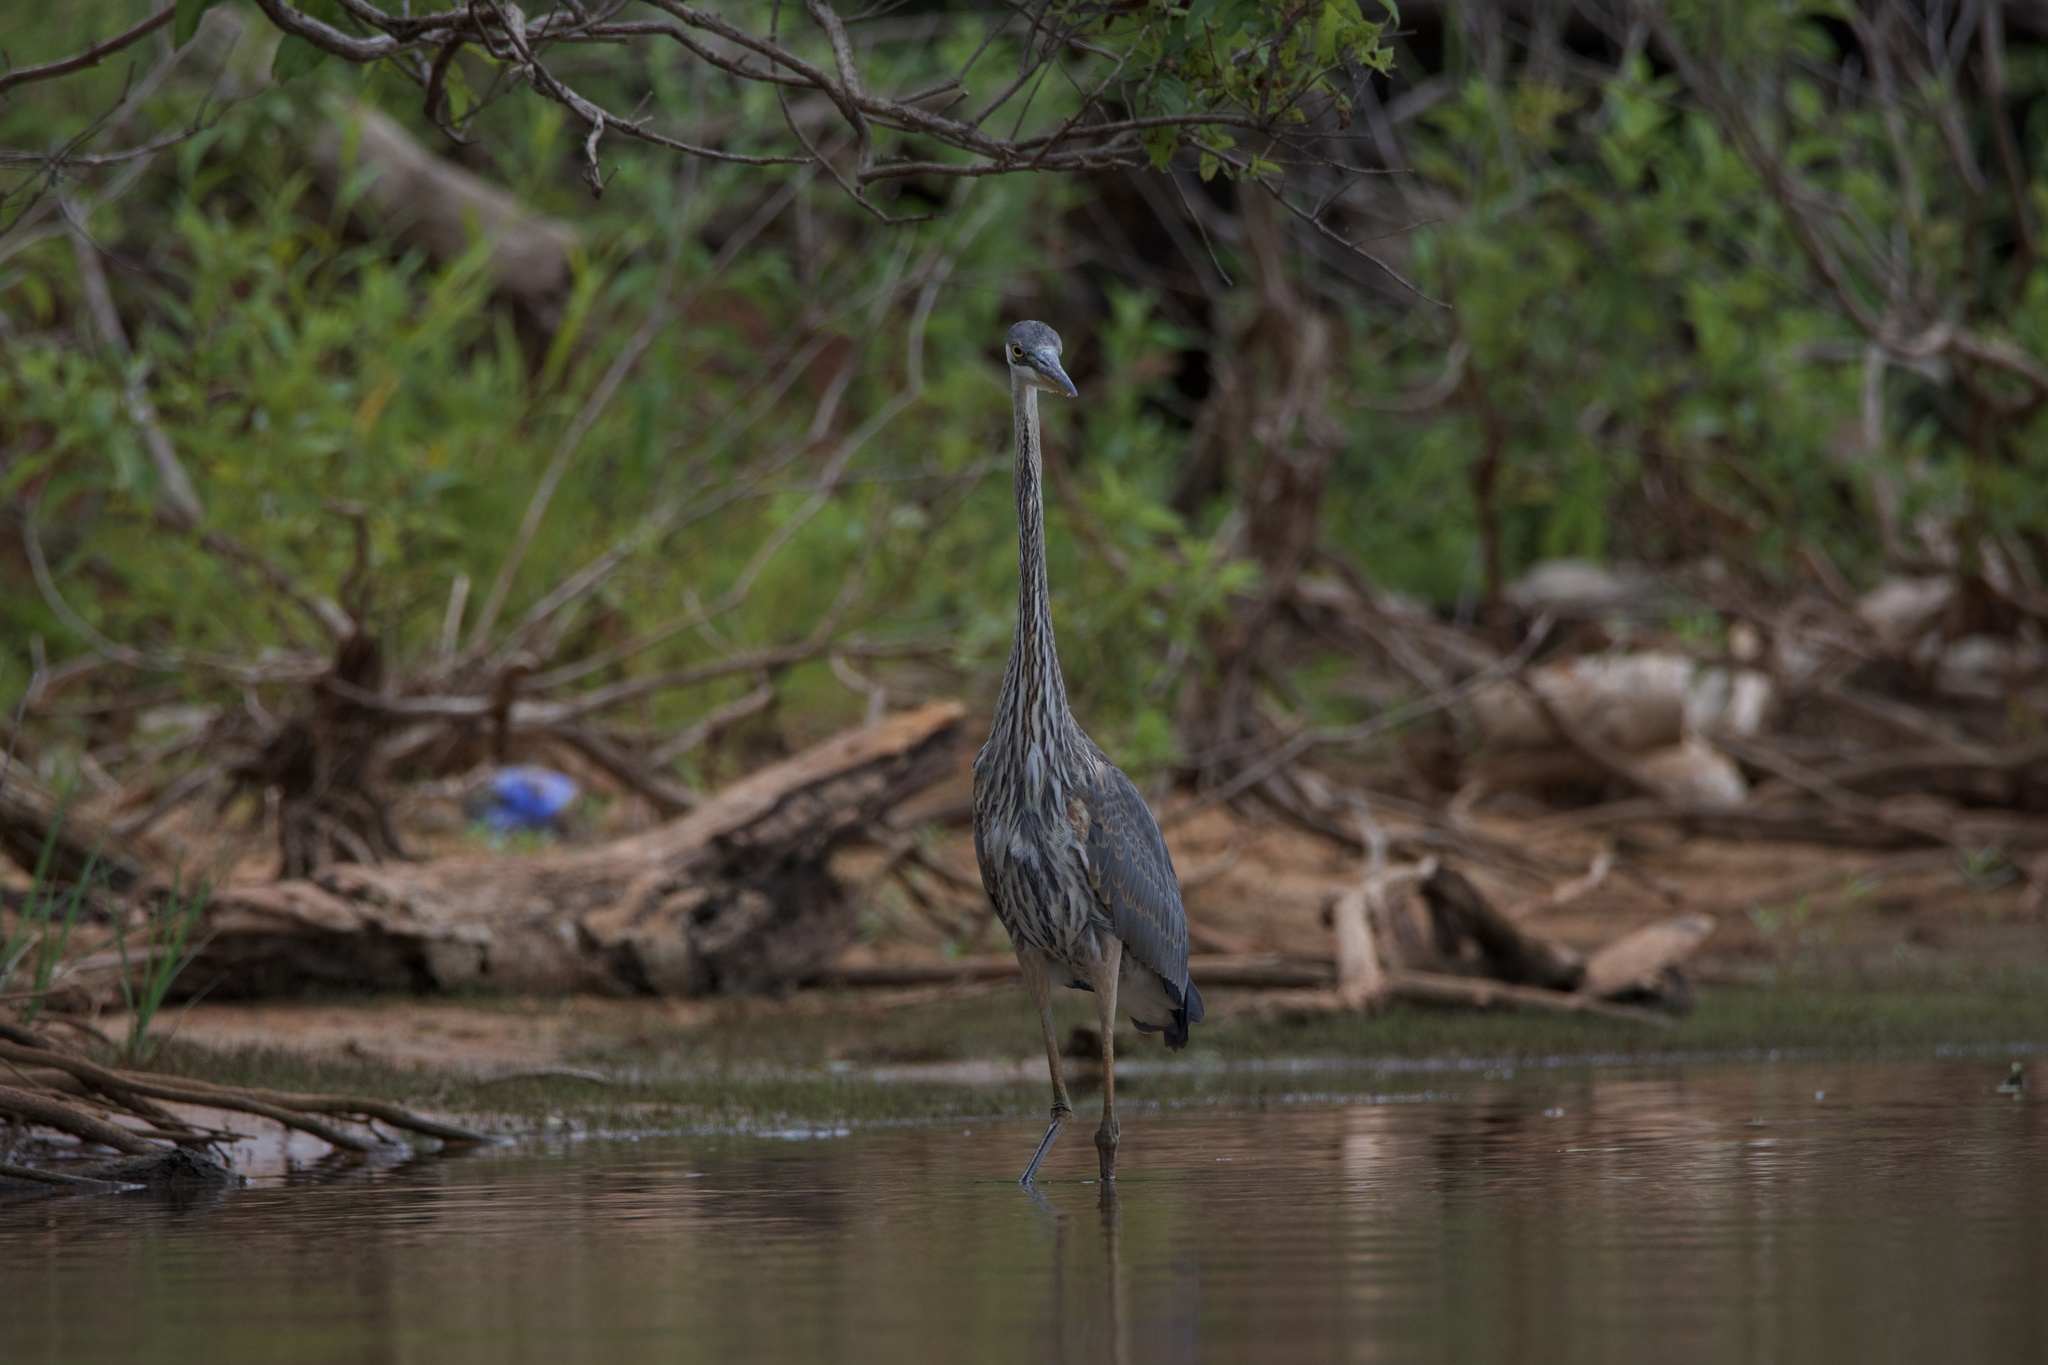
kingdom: Animalia
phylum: Chordata
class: Aves
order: Pelecaniformes
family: Ardeidae
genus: Ardea
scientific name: Ardea herodias
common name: Great blue heron
